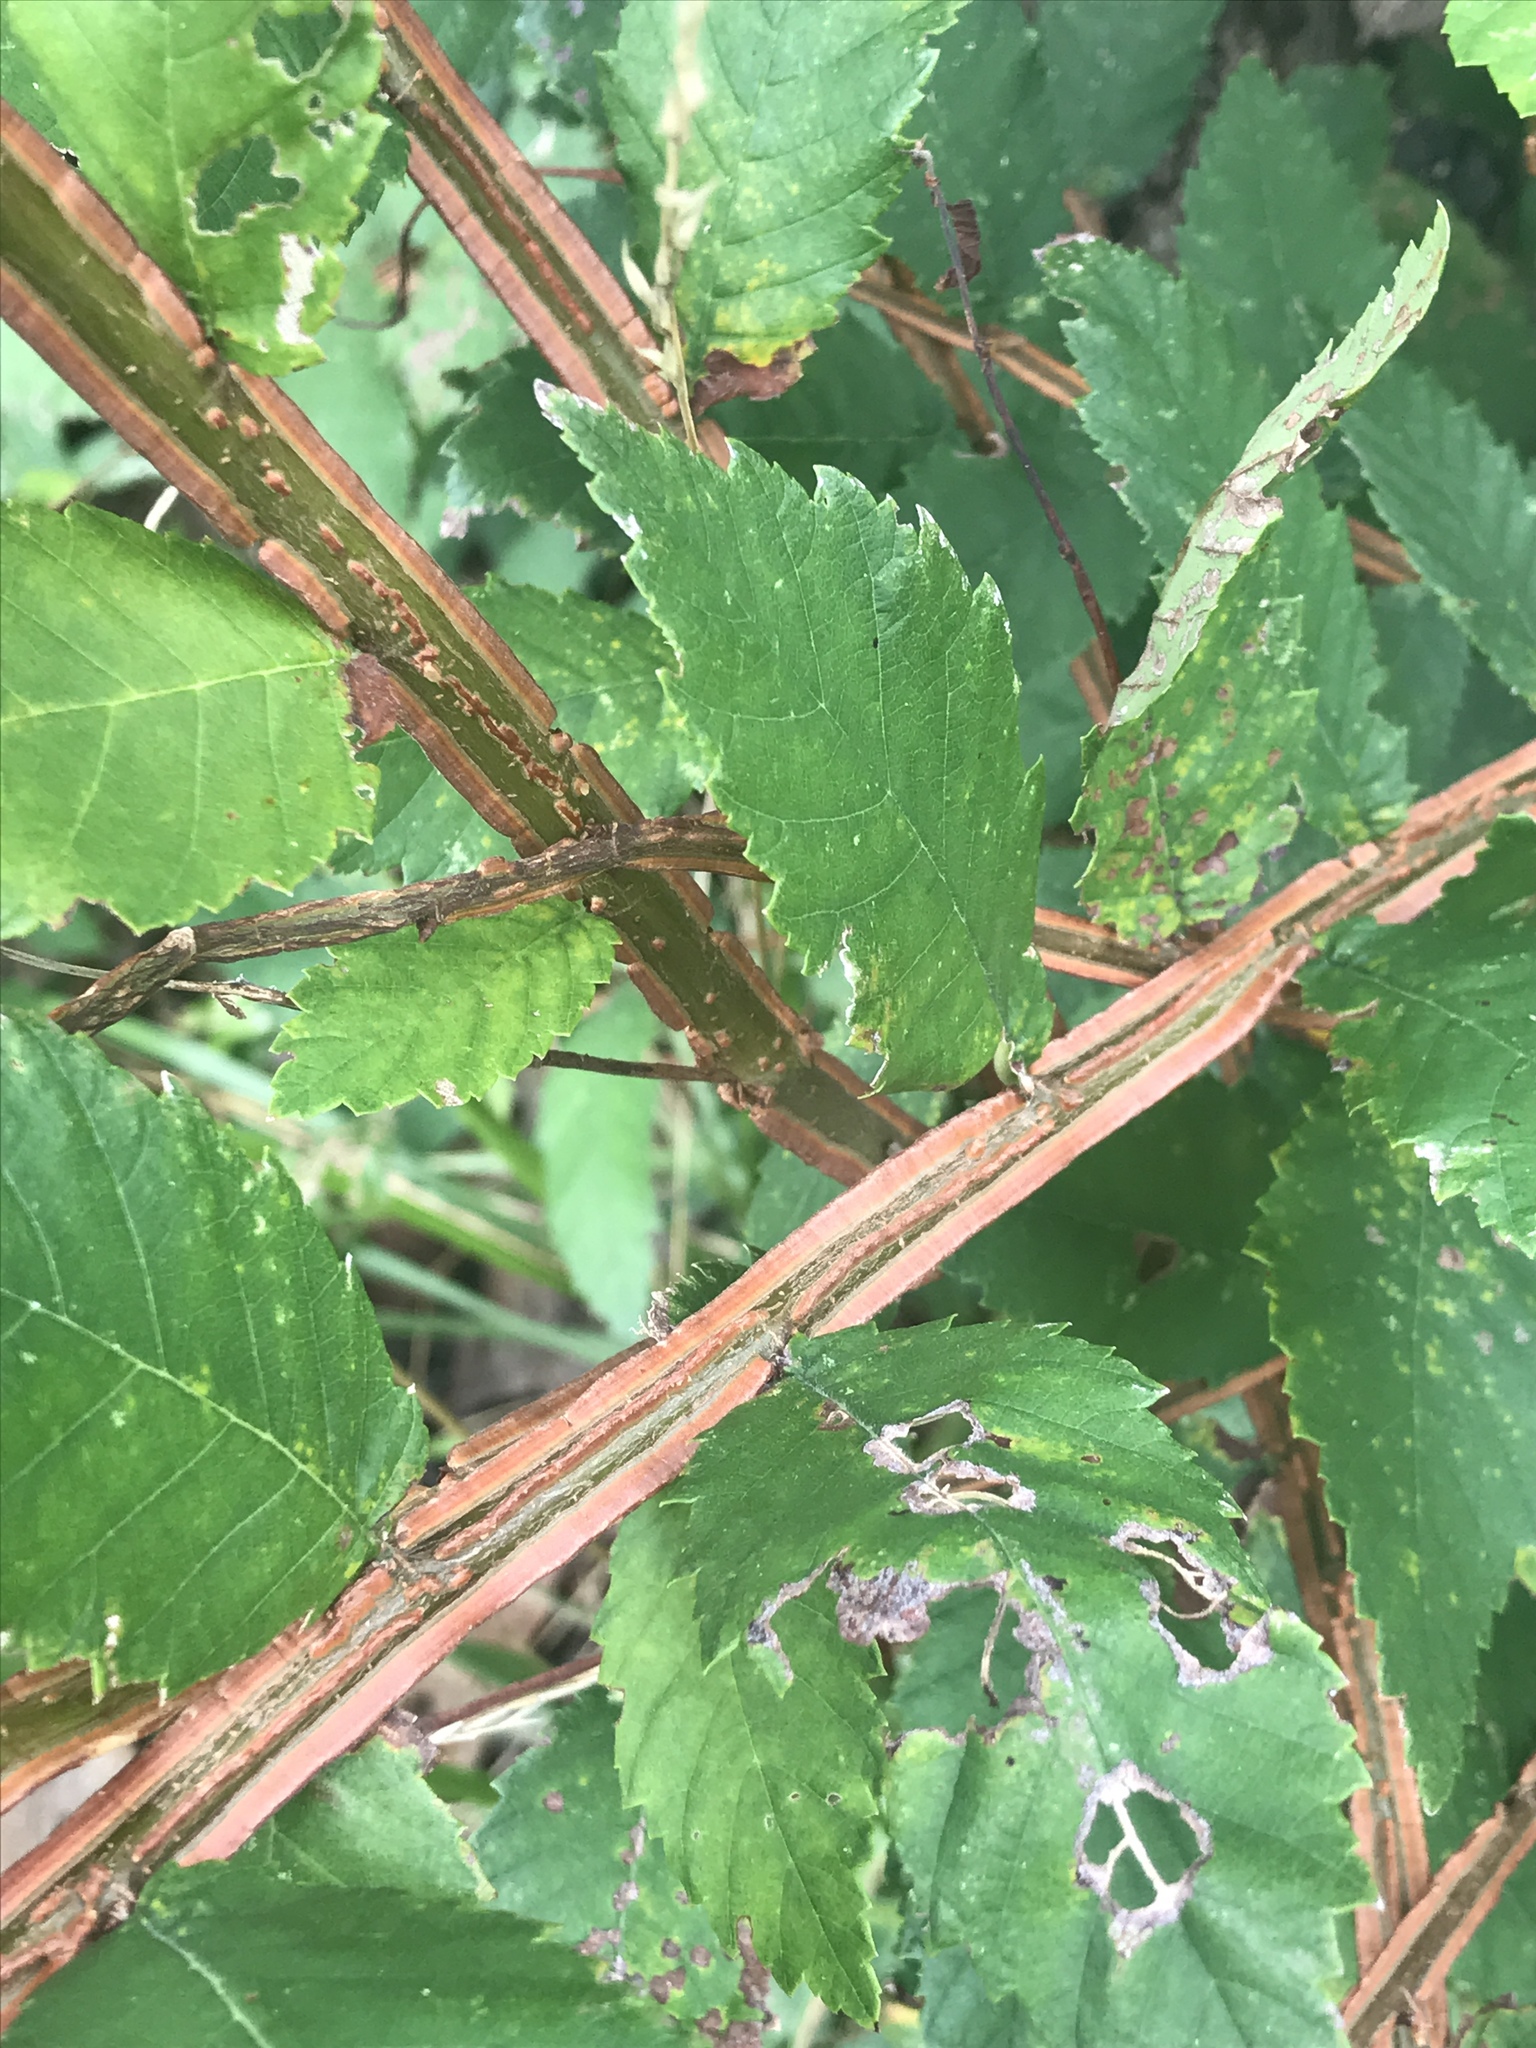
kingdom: Plantae
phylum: Tracheophyta
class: Magnoliopsida
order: Rosales
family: Ulmaceae
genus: Ulmus
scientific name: Ulmus alata
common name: Winged elm
